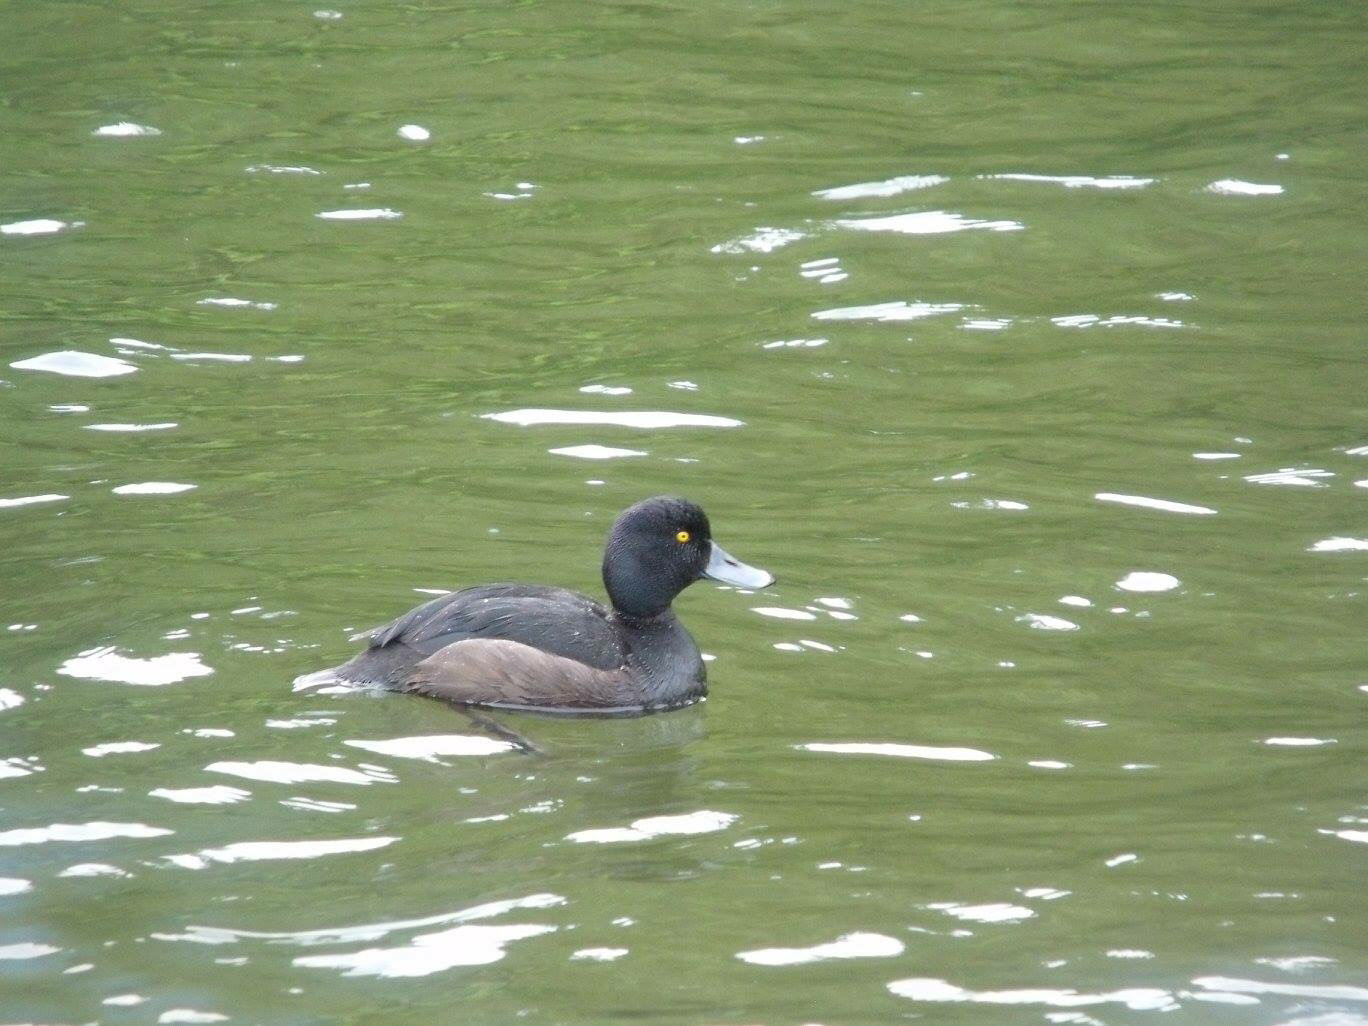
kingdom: Animalia
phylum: Chordata
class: Aves
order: Anseriformes
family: Anatidae
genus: Aythya
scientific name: Aythya novaeseelandiae
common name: New zealand scaup
